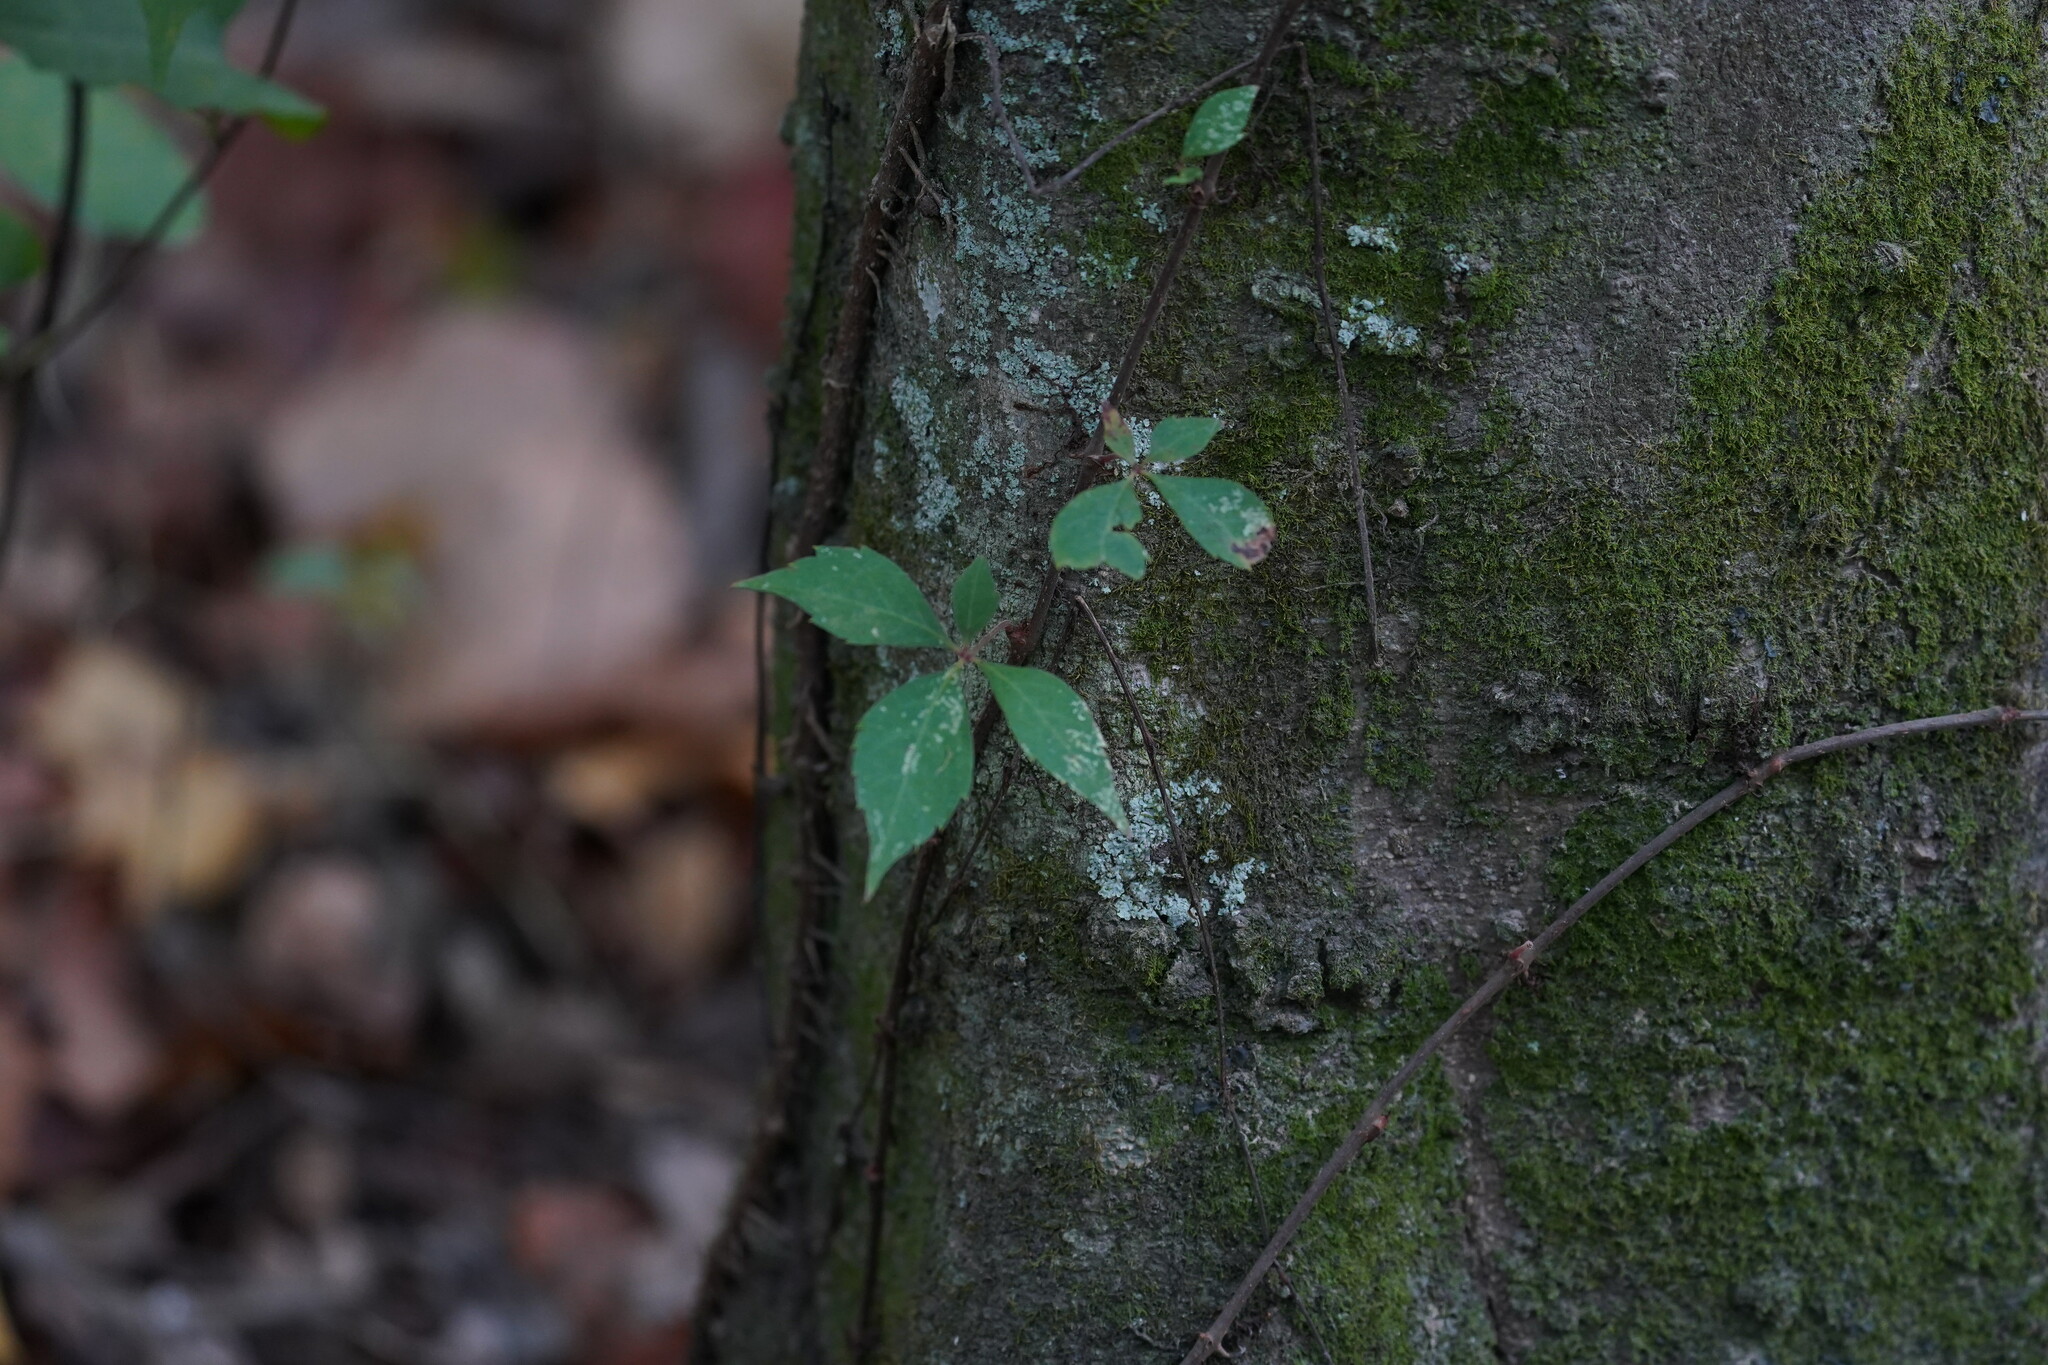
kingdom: Plantae
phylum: Tracheophyta
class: Magnoliopsida
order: Vitales
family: Vitaceae
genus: Parthenocissus
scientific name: Parthenocissus quinquefolia
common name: Virginia-creeper
